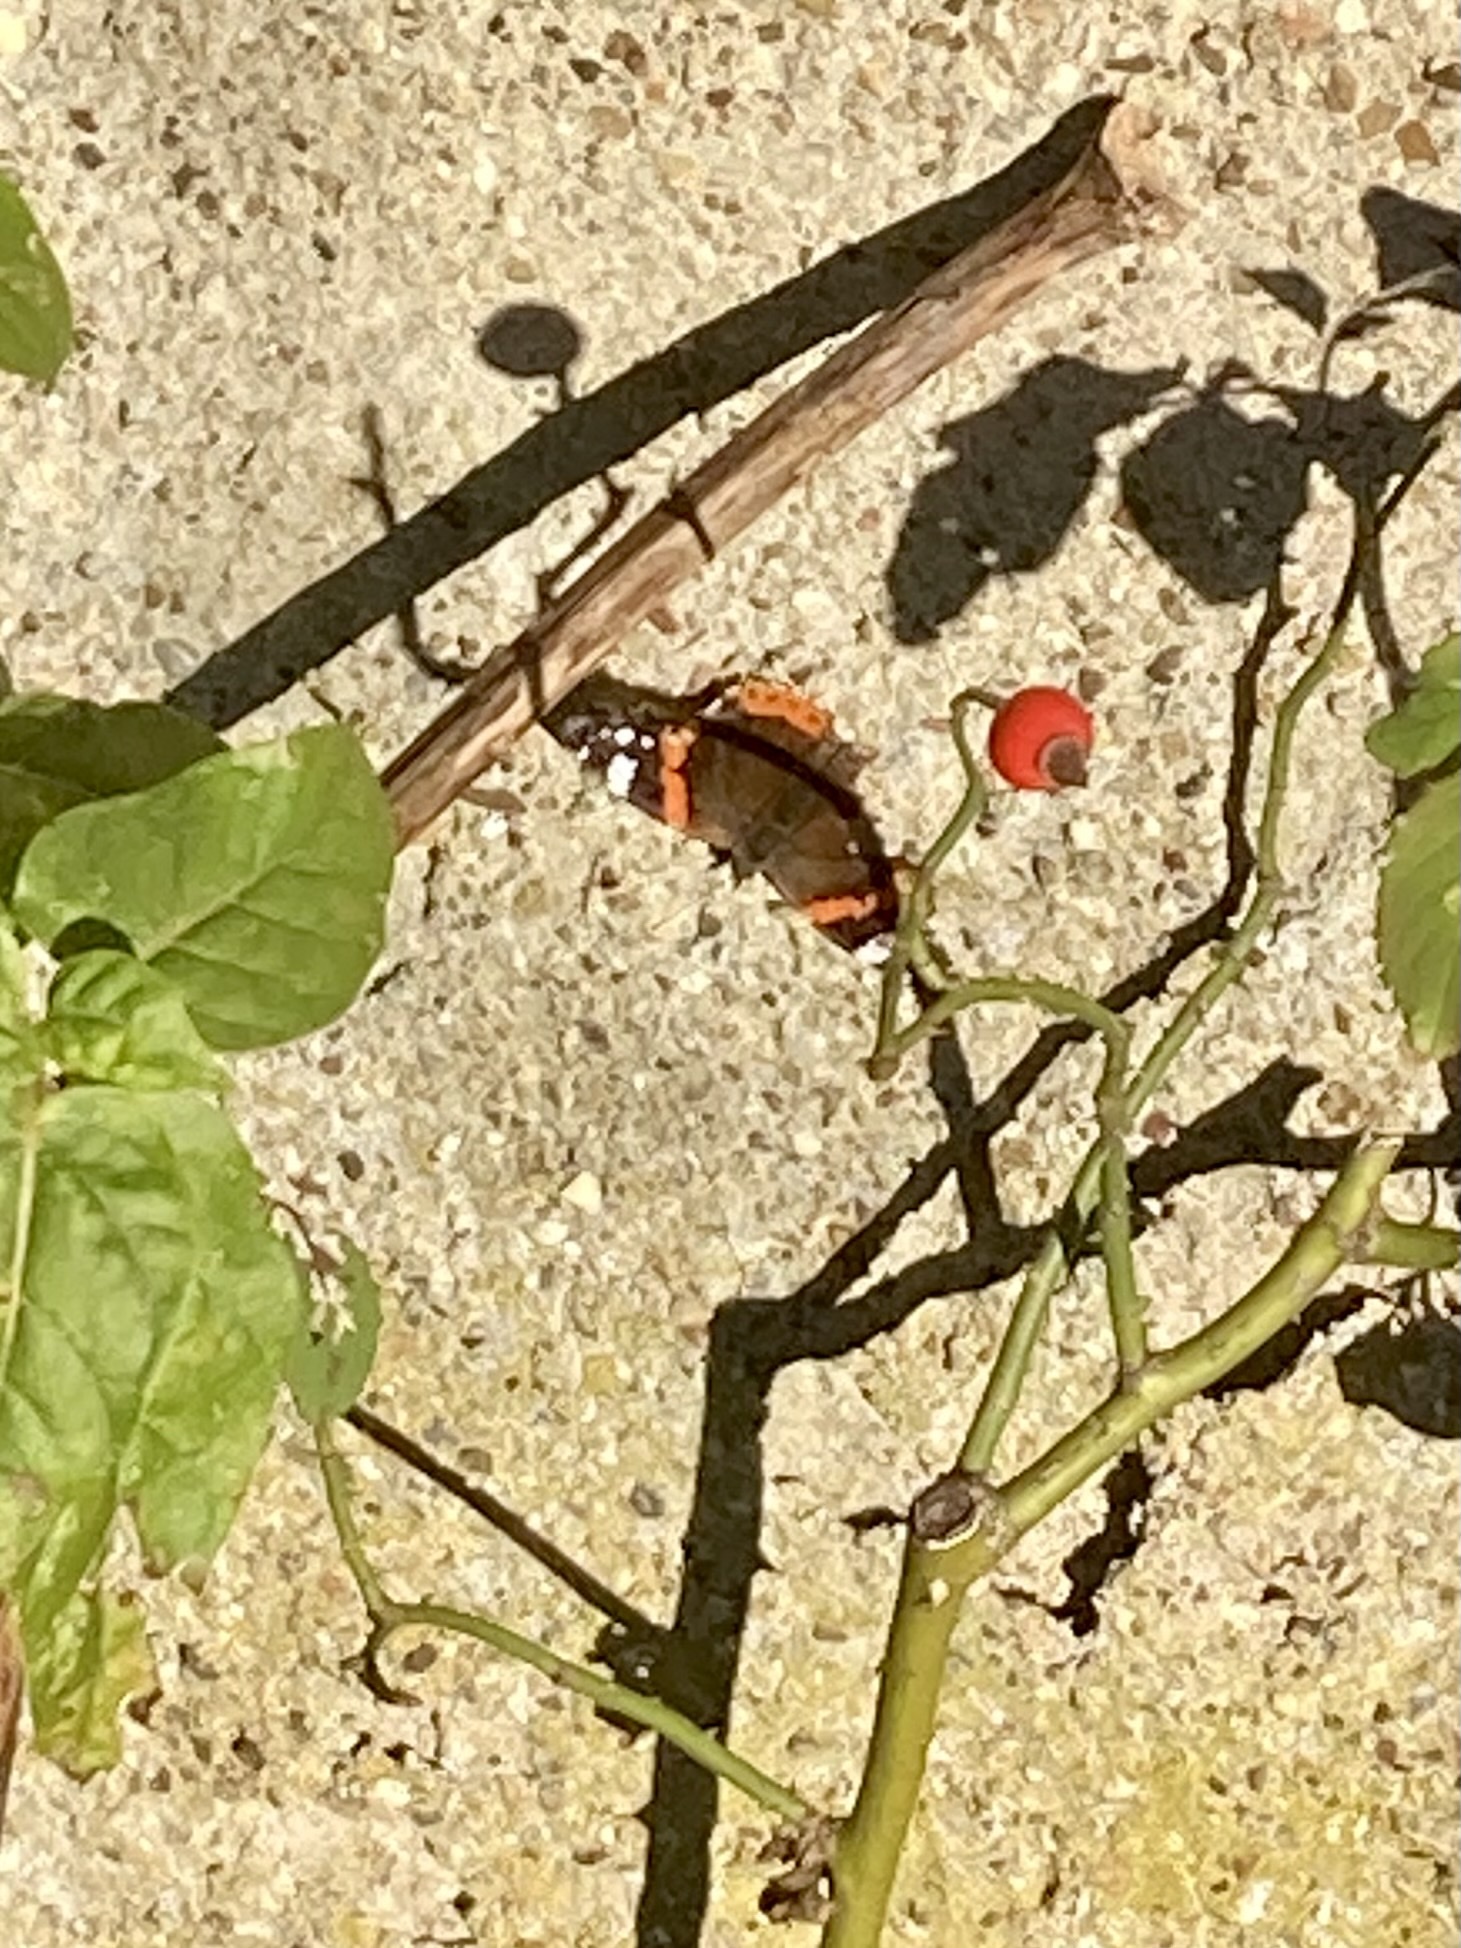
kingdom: Animalia
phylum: Arthropoda
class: Insecta
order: Lepidoptera
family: Nymphalidae
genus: Vanessa
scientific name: Vanessa atalanta
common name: Red admiral
